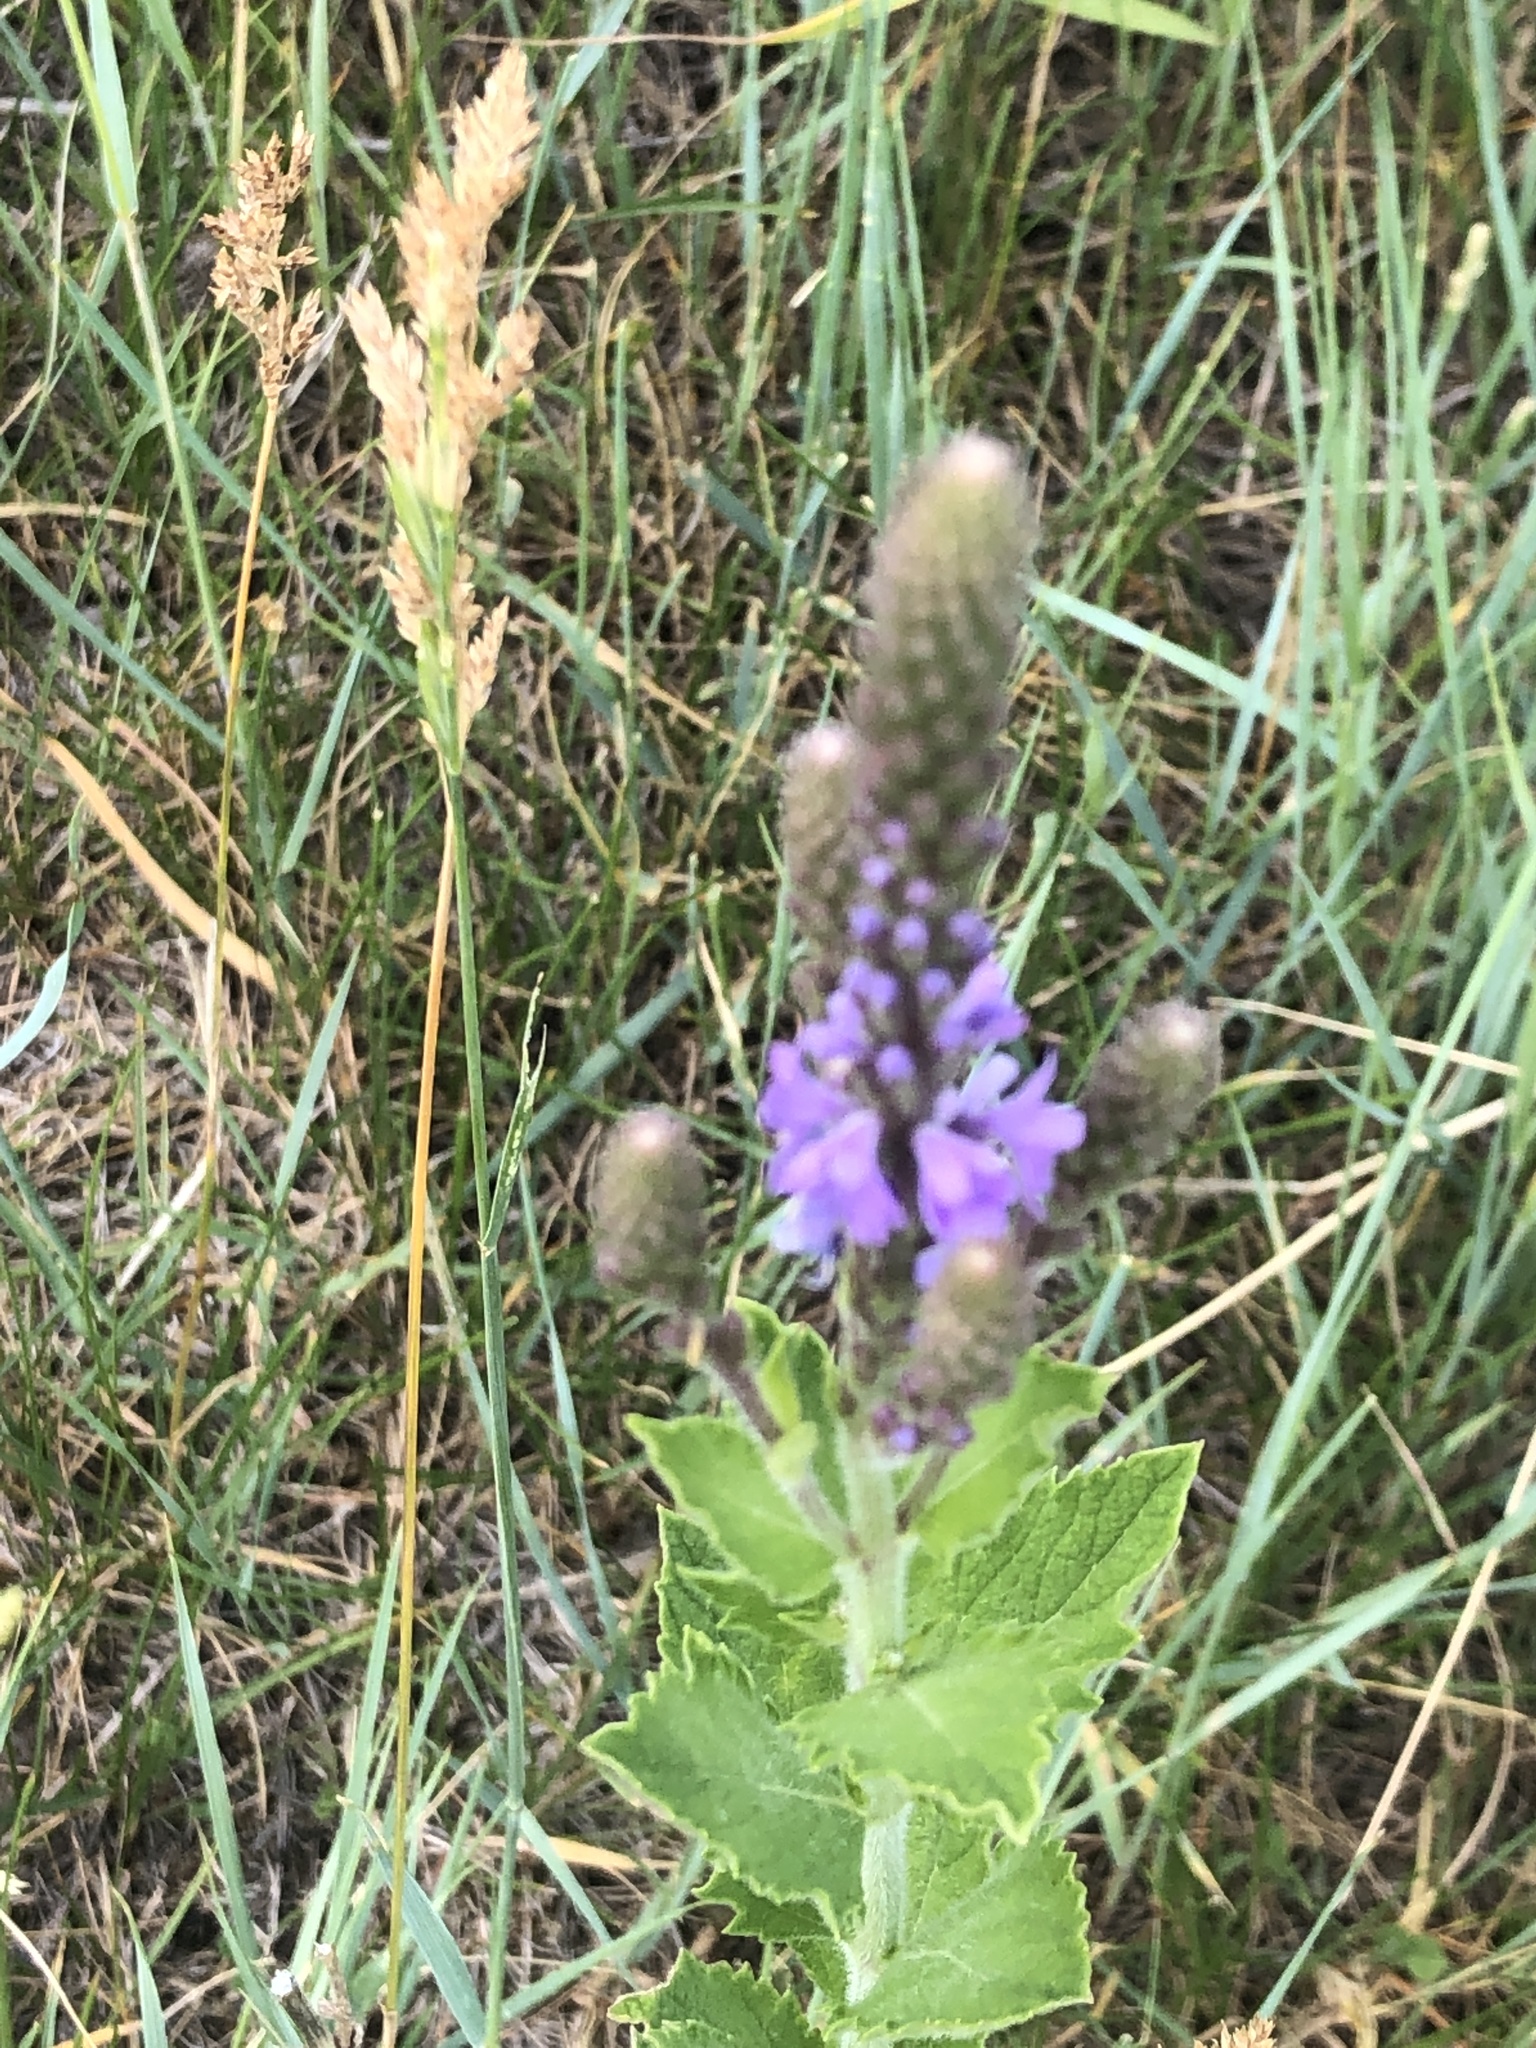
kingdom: Plantae
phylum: Tracheophyta
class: Magnoliopsida
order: Lamiales
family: Verbenaceae
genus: Verbena
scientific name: Verbena stricta
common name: Hoary vervain
